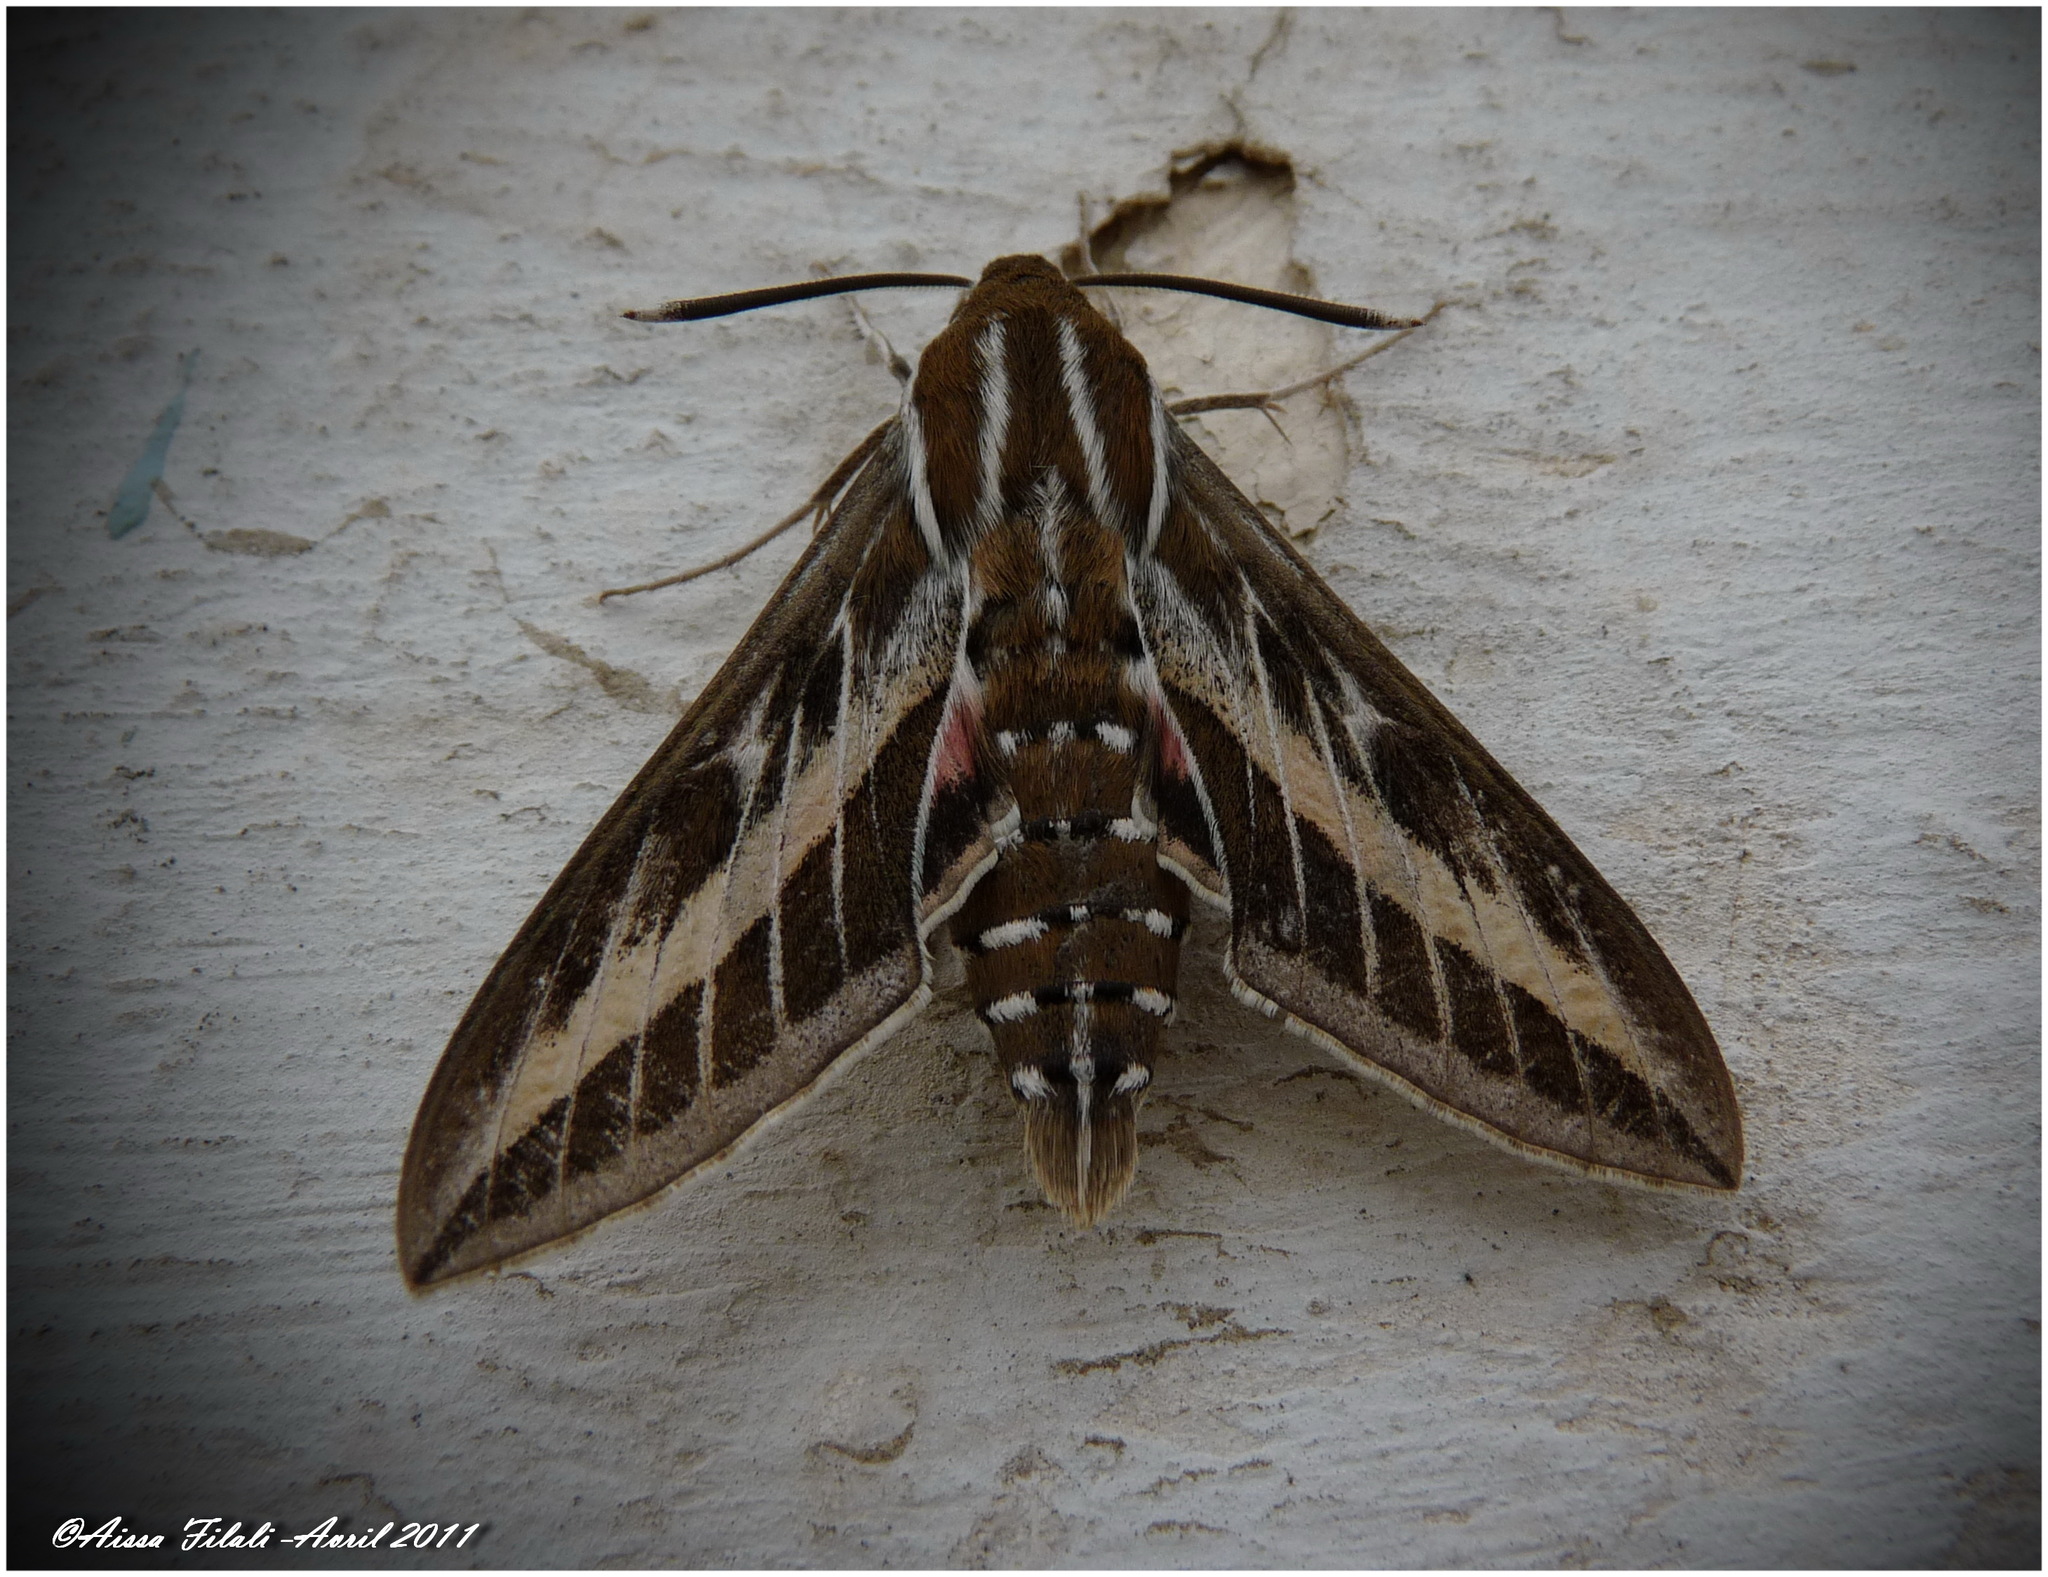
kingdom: Animalia
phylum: Arthropoda
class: Insecta
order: Lepidoptera
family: Sphingidae
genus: Hyles
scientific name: Hyles livornica
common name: Striped hawk-moth
